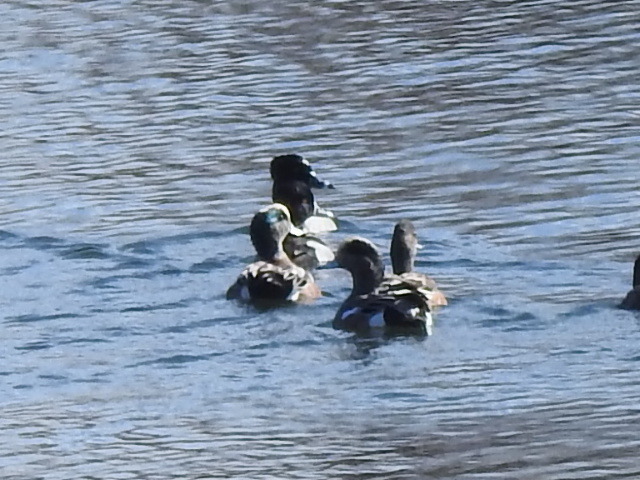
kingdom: Animalia
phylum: Chordata
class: Aves
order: Anseriformes
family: Anatidae
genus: Mareca
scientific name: Mareca americana
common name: American wigeon
